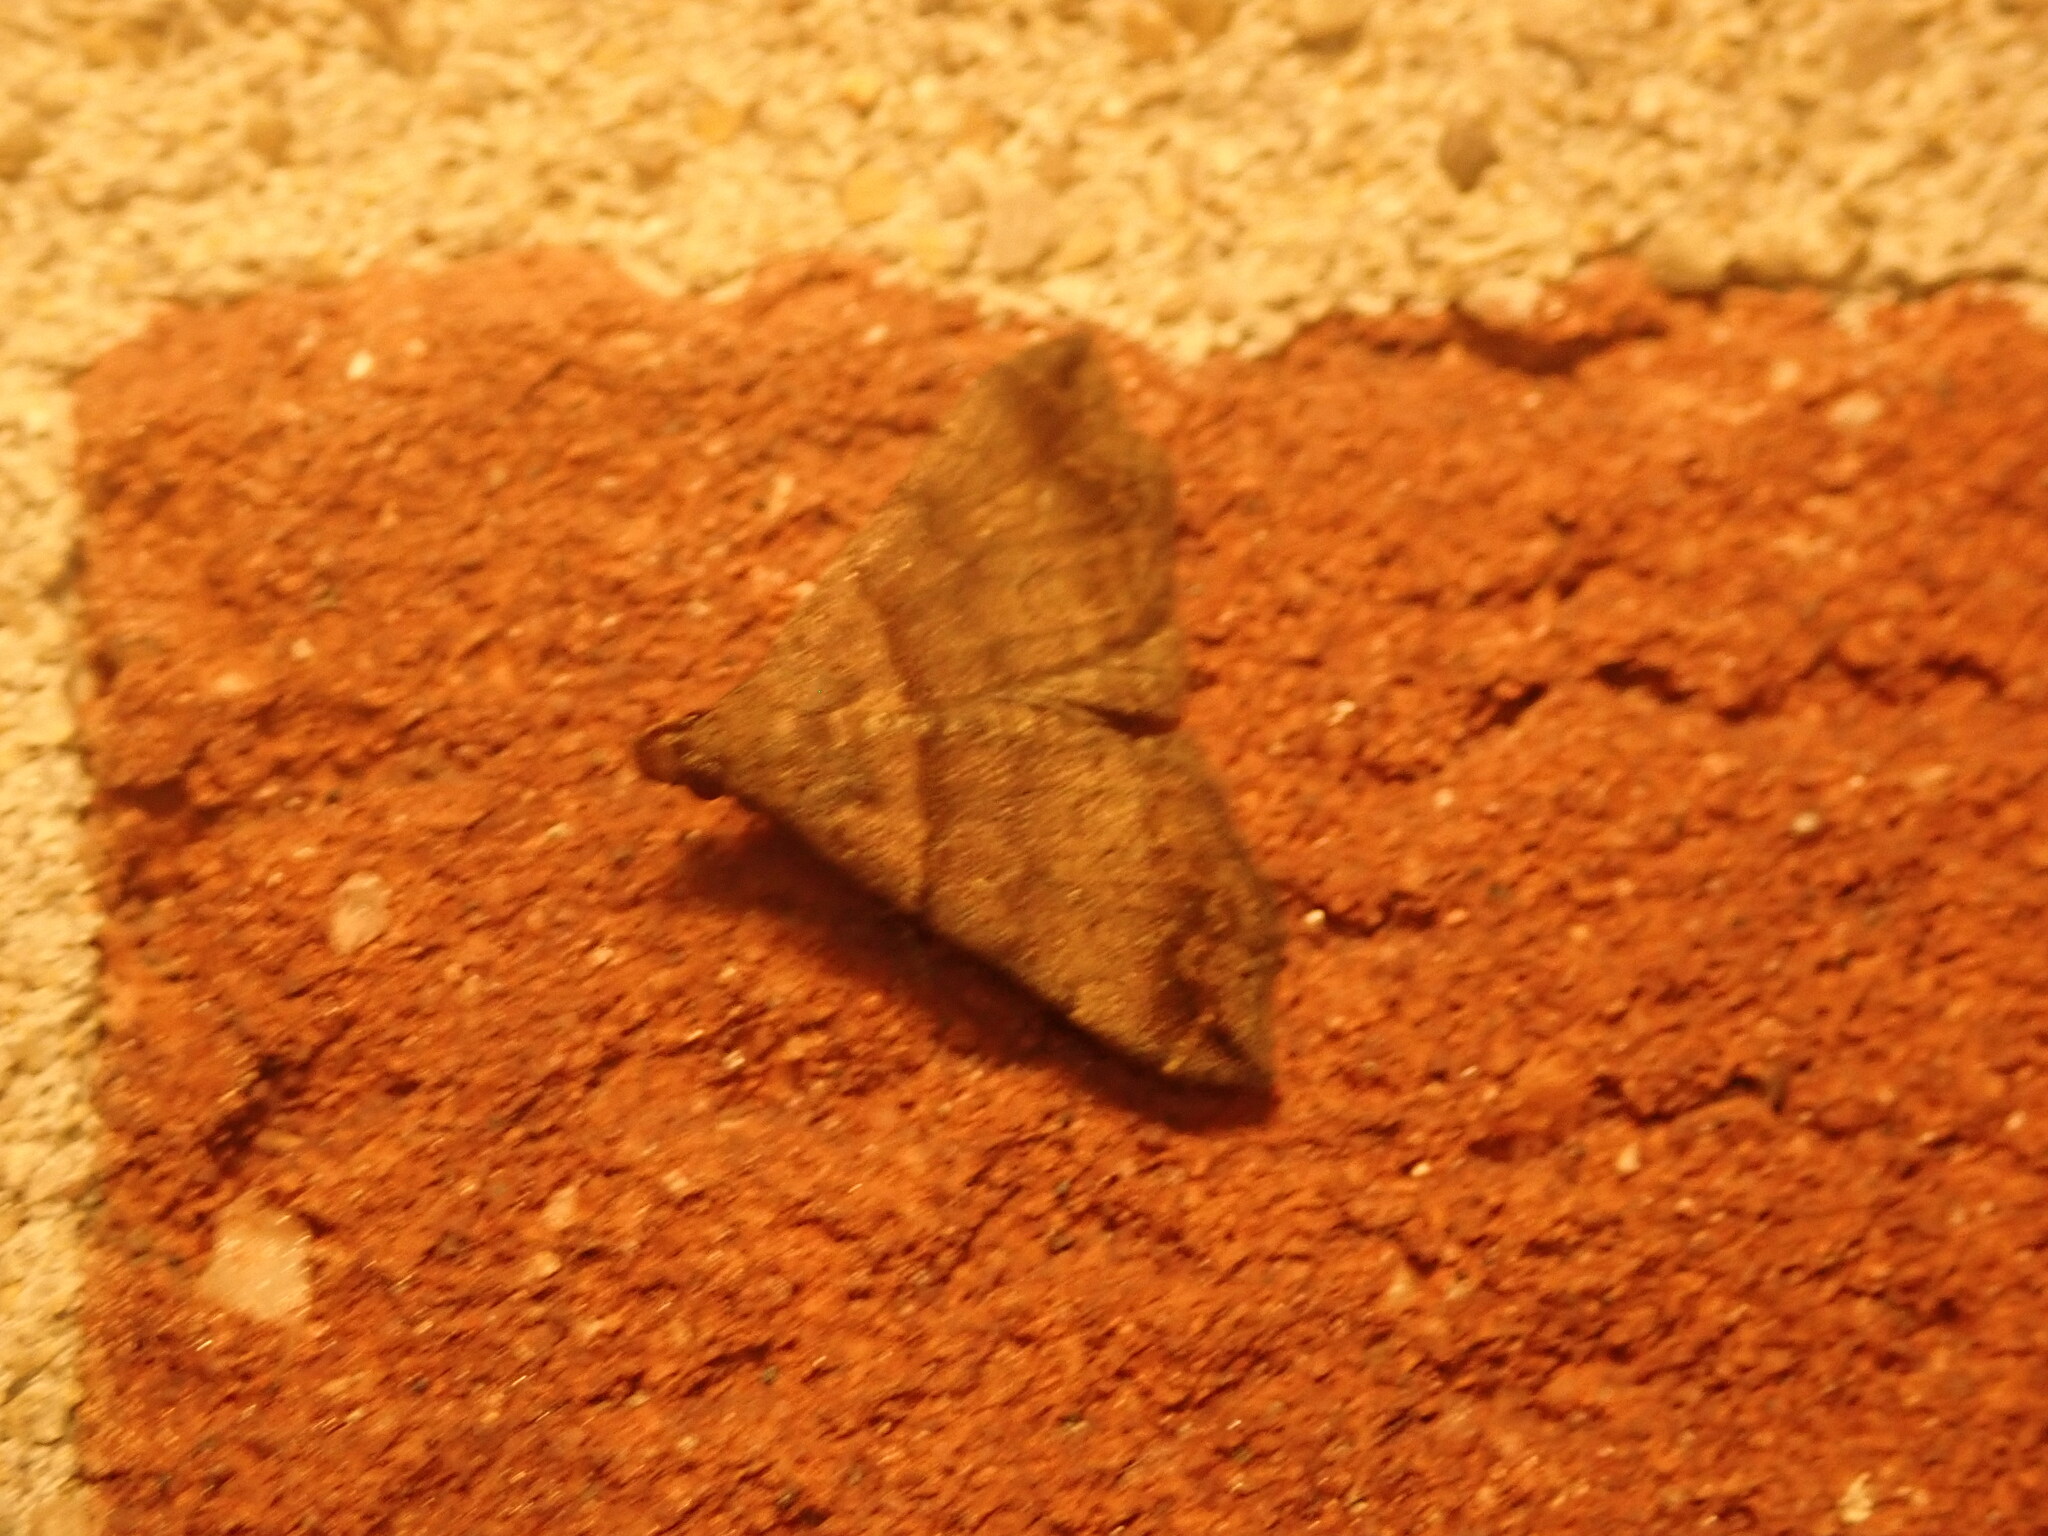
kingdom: Animalia
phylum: Arthropoda
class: Insecta
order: Lepidoptera
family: Erebidae
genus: Lascoria
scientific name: Lascoria ambigualis
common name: Ambiguous moth
